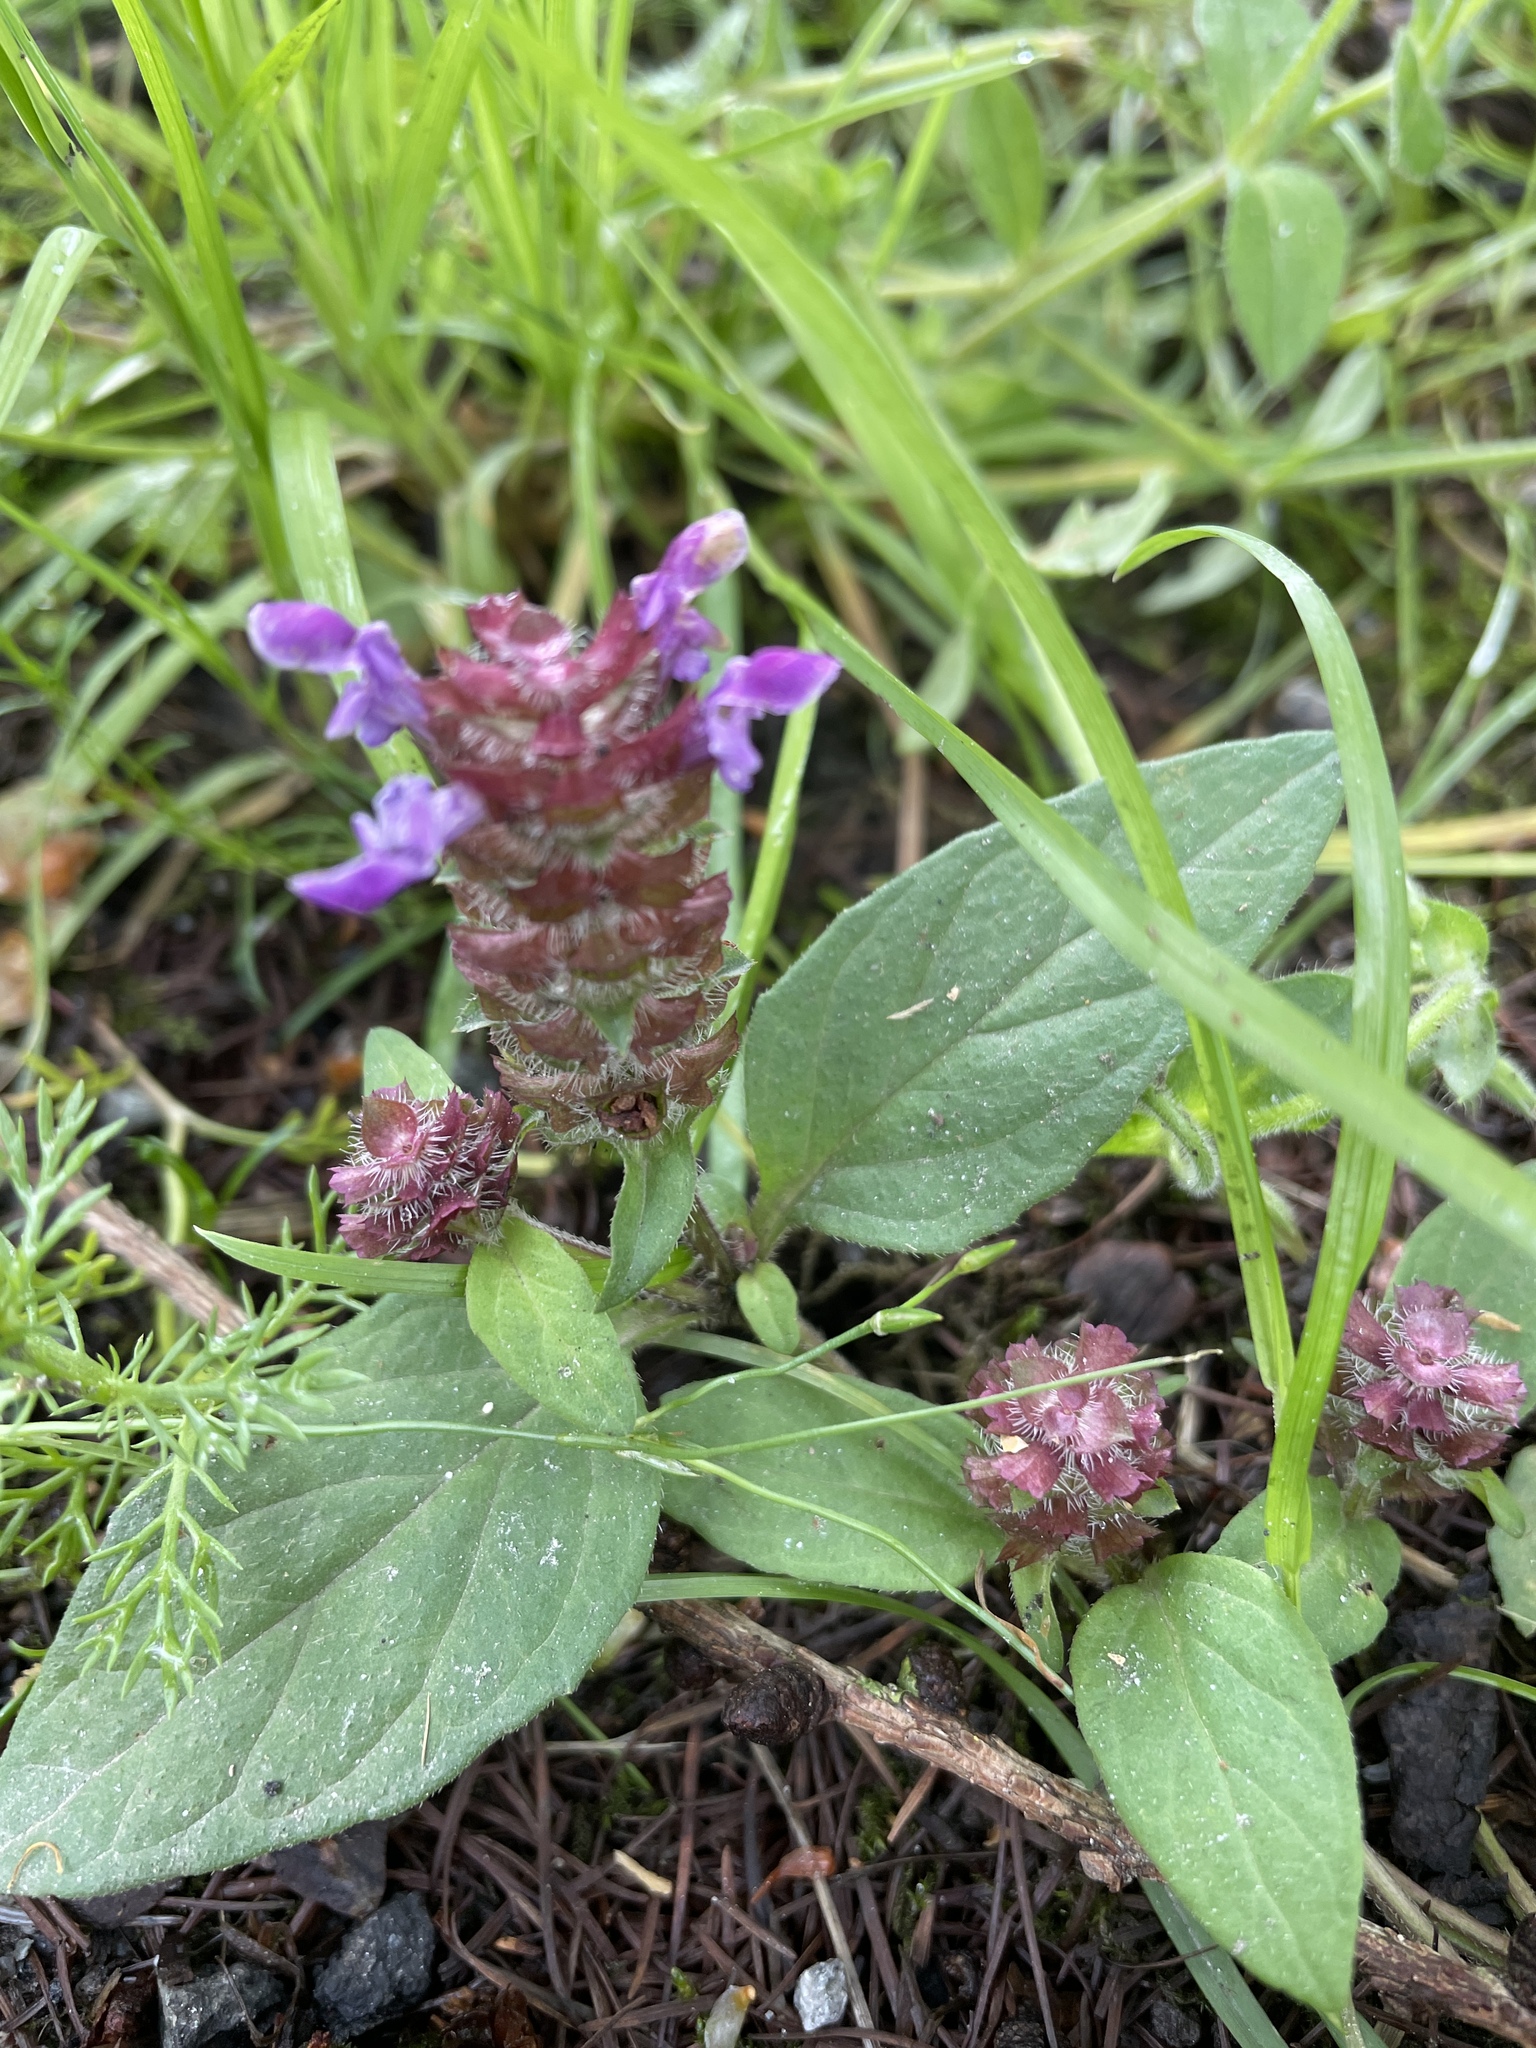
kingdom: Plantae
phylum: Tracheophyta
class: Magnoliopsida
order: Lamiales
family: Lamiaceae
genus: Prunella
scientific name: Prunella vulgaris
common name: Heal-all
